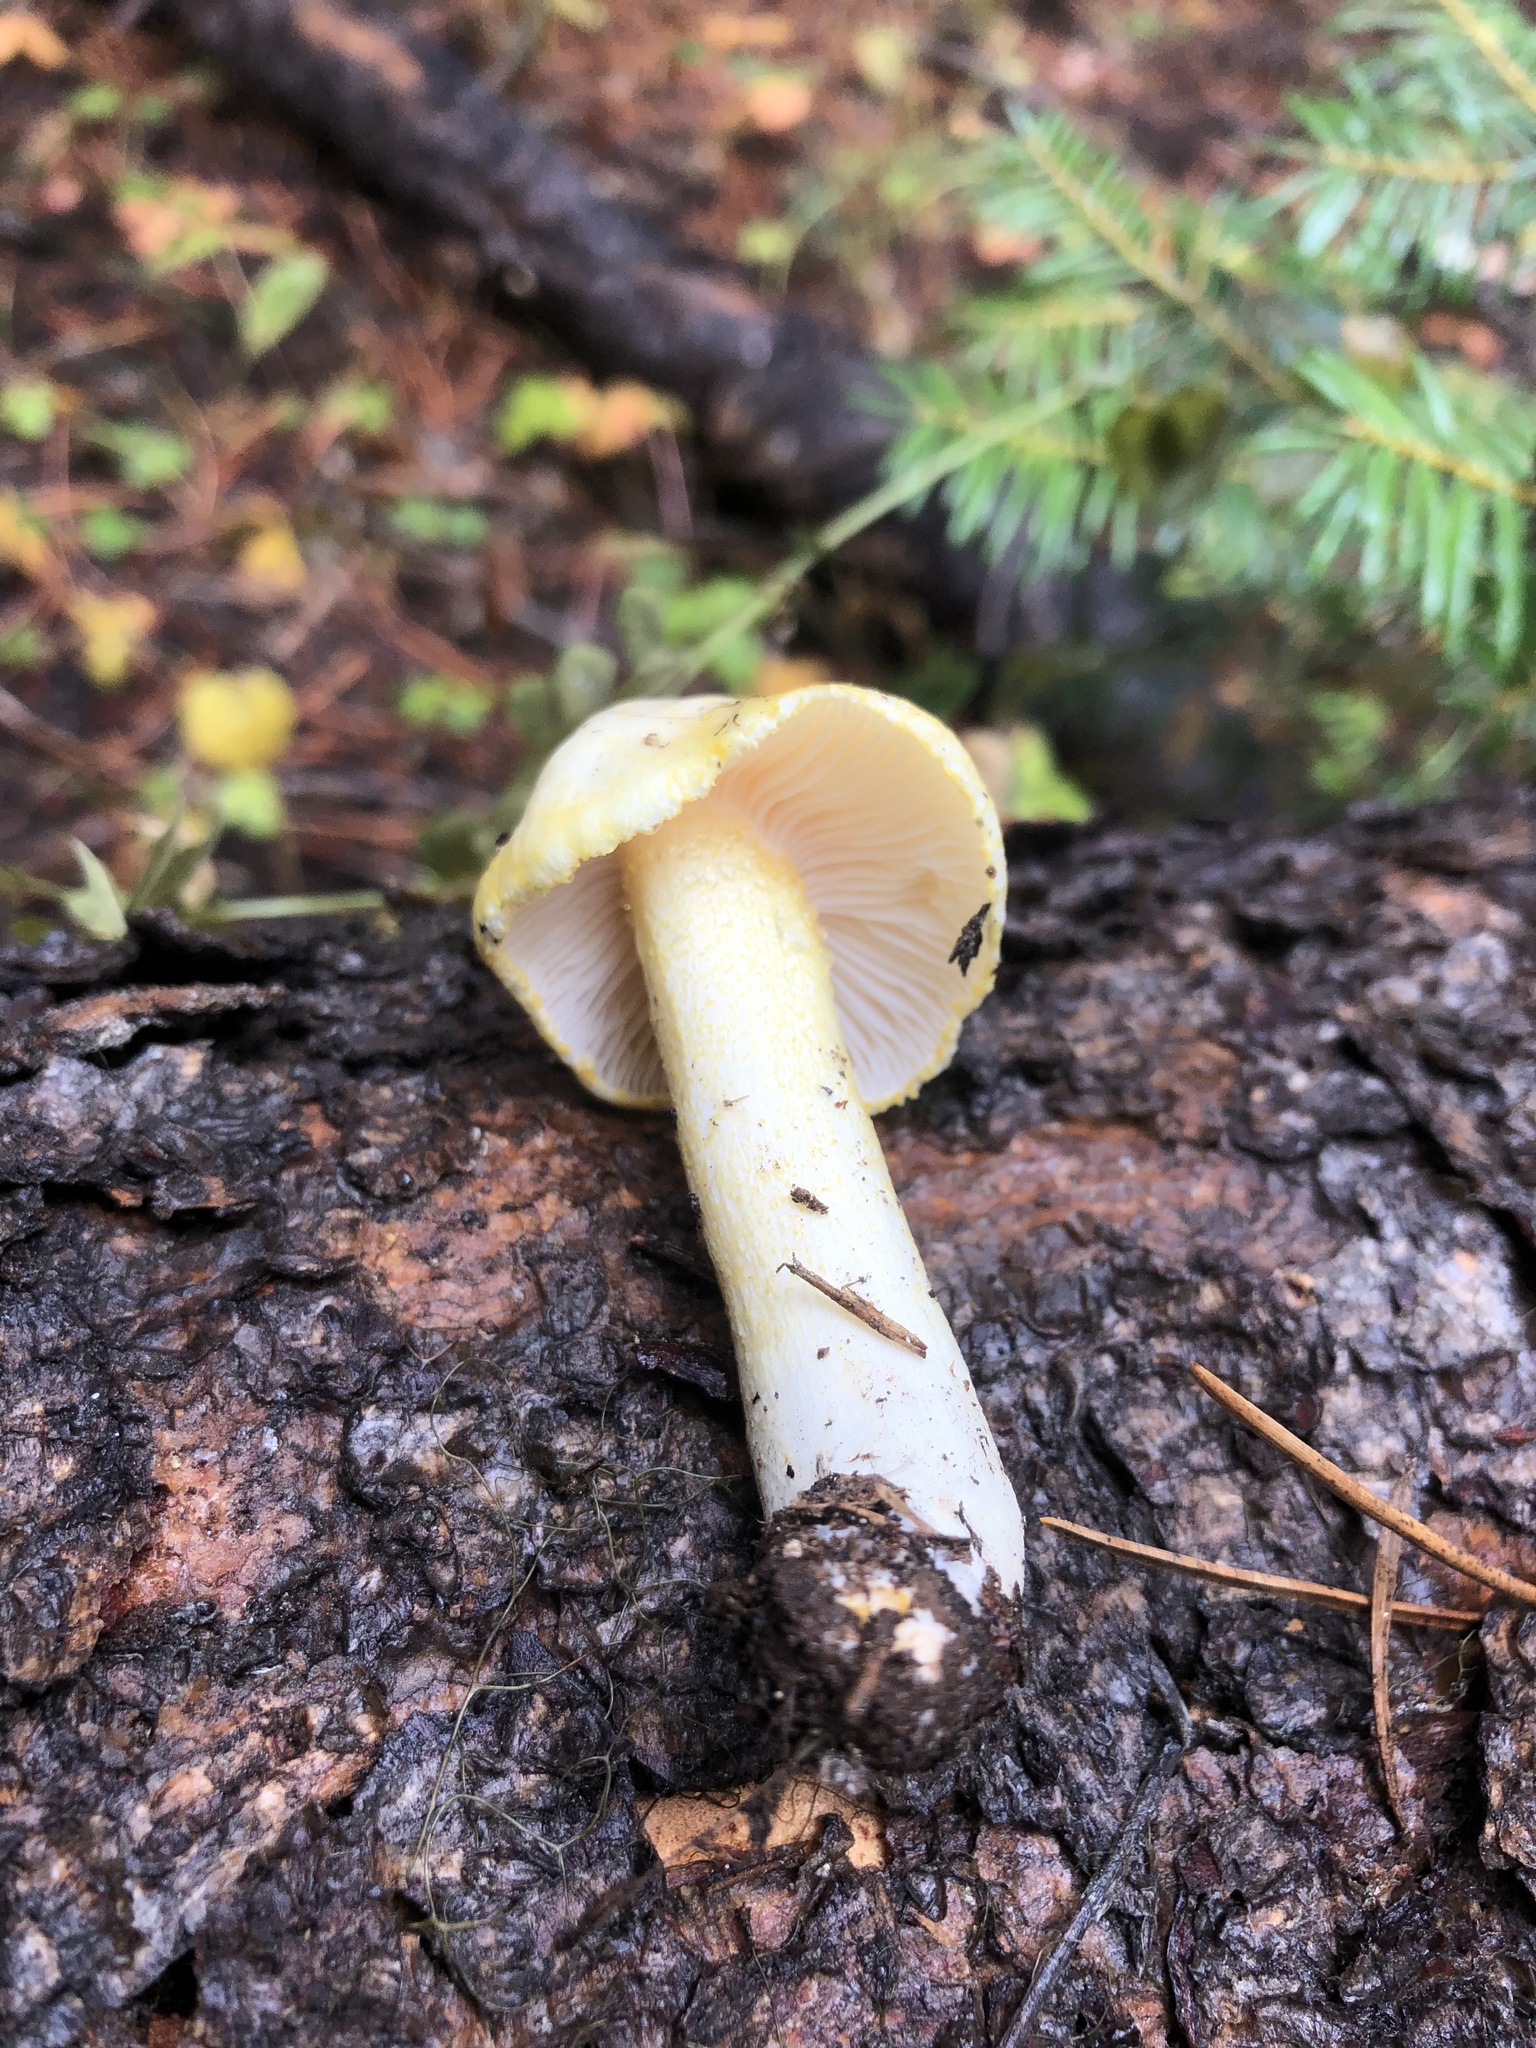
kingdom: Fungi
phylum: Basidiomycota
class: Agaricomycetes
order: Agaricales
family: Hygrophoraceae
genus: Hygrophorus
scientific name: Hygrophorus chrysodon
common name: Gold flecked woodwax
